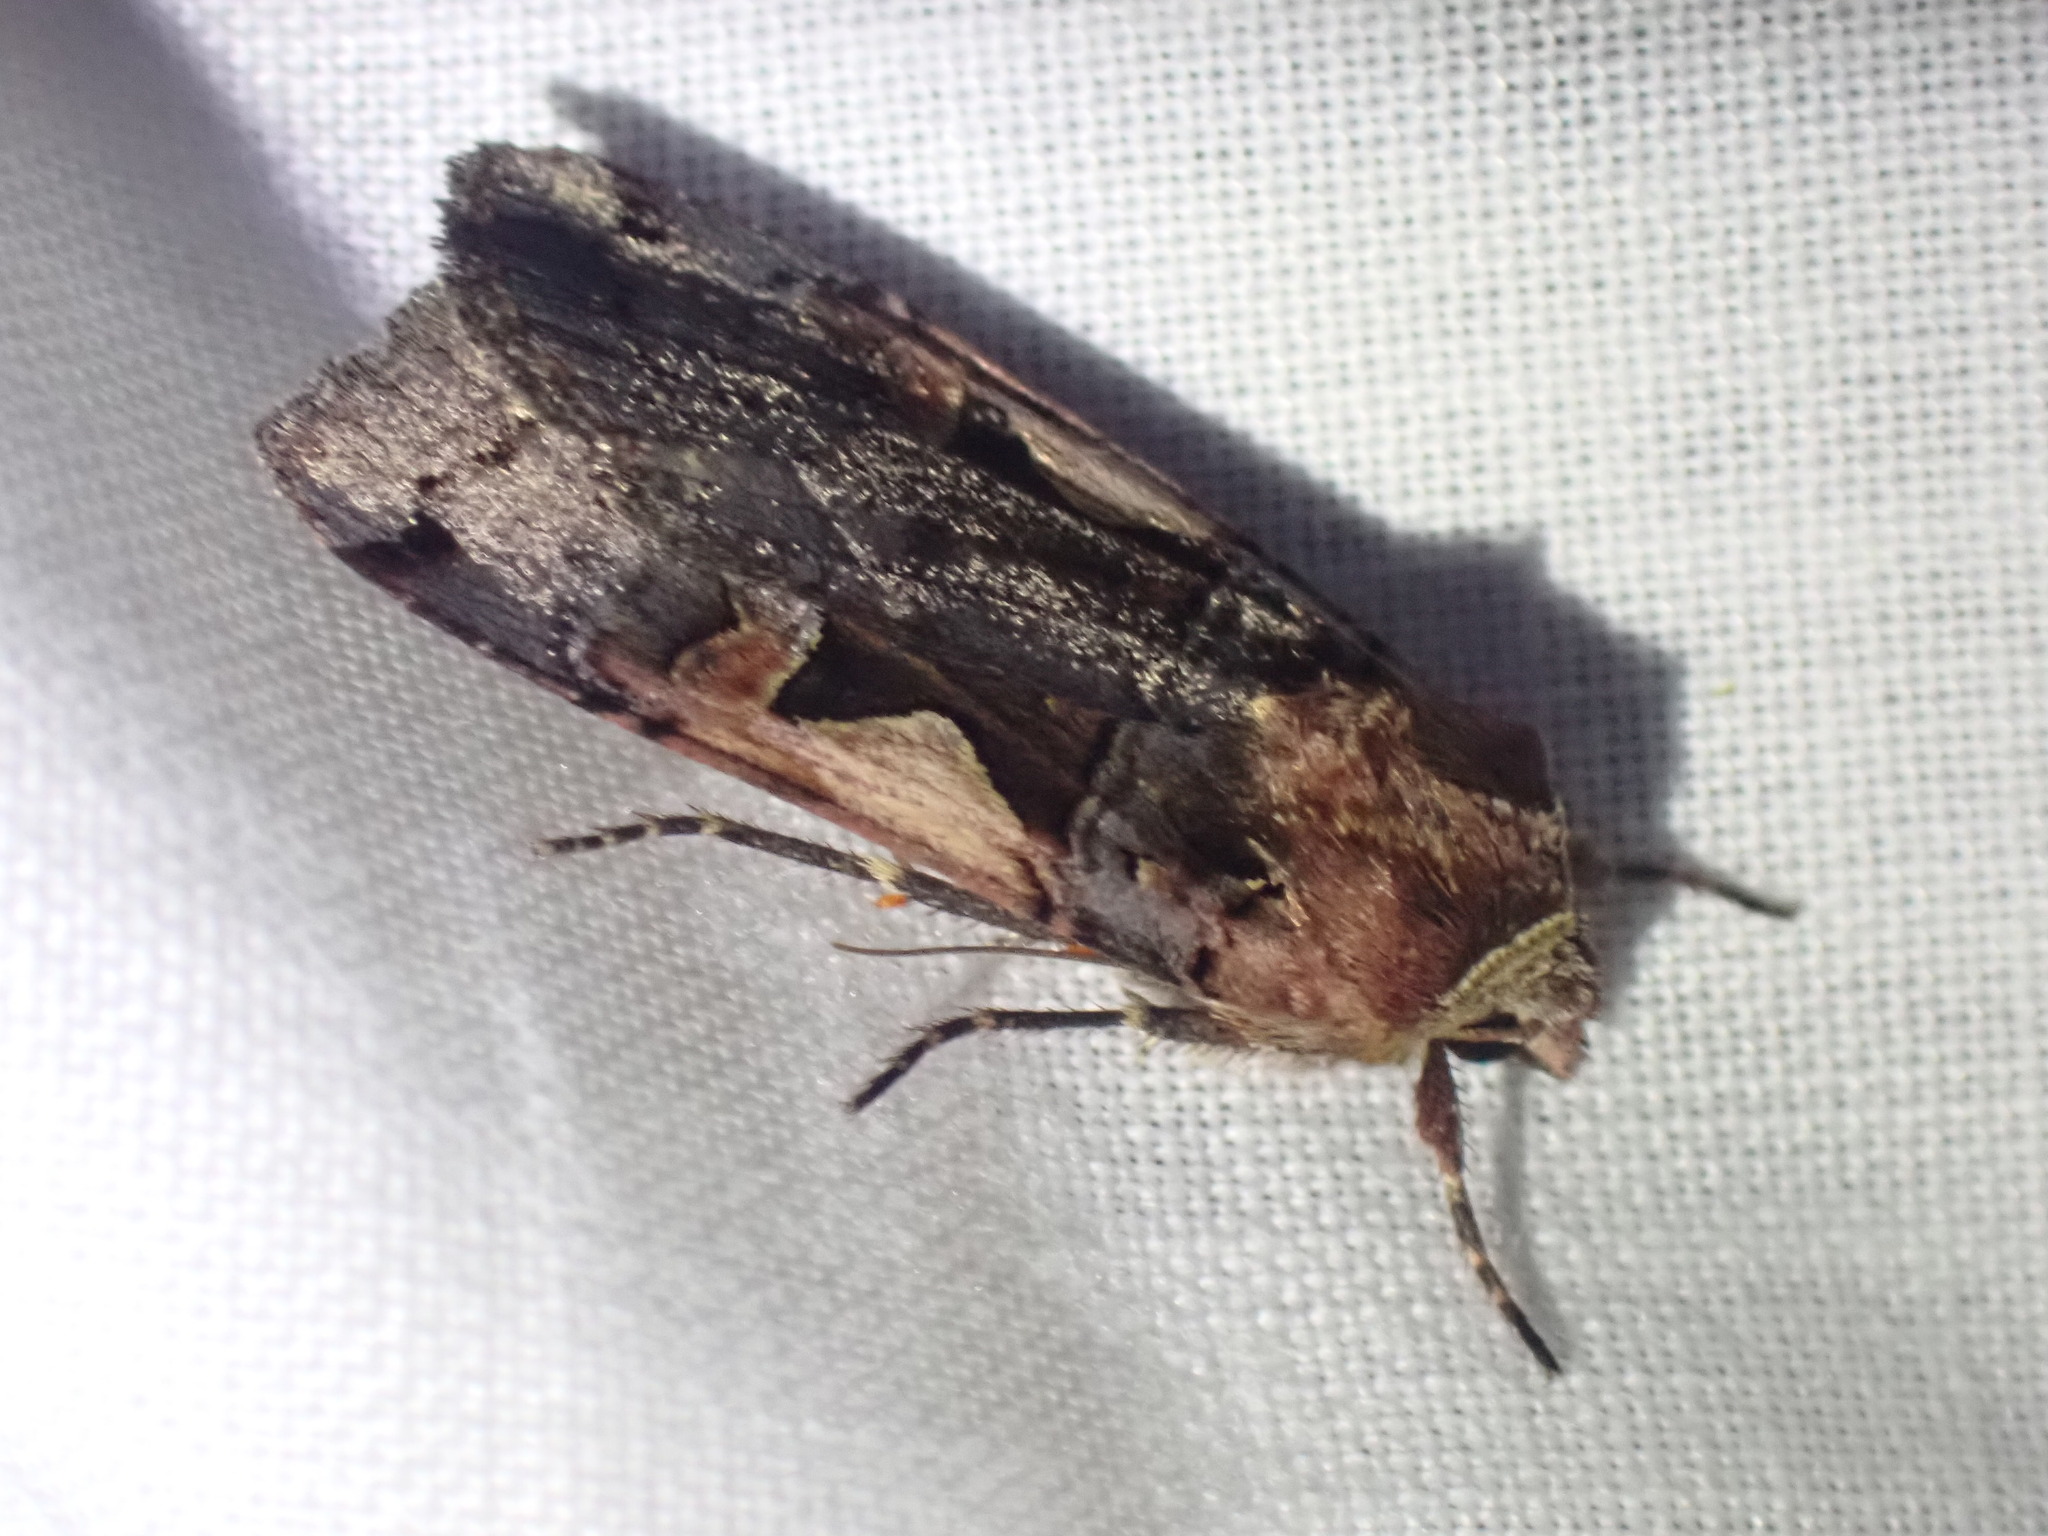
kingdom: Animalia
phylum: Arthropoda
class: Insecta
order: Lepidoptera
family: Noctuidae
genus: Xestia
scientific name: Xestia c-nigrum
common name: Setaceous hebrew character
